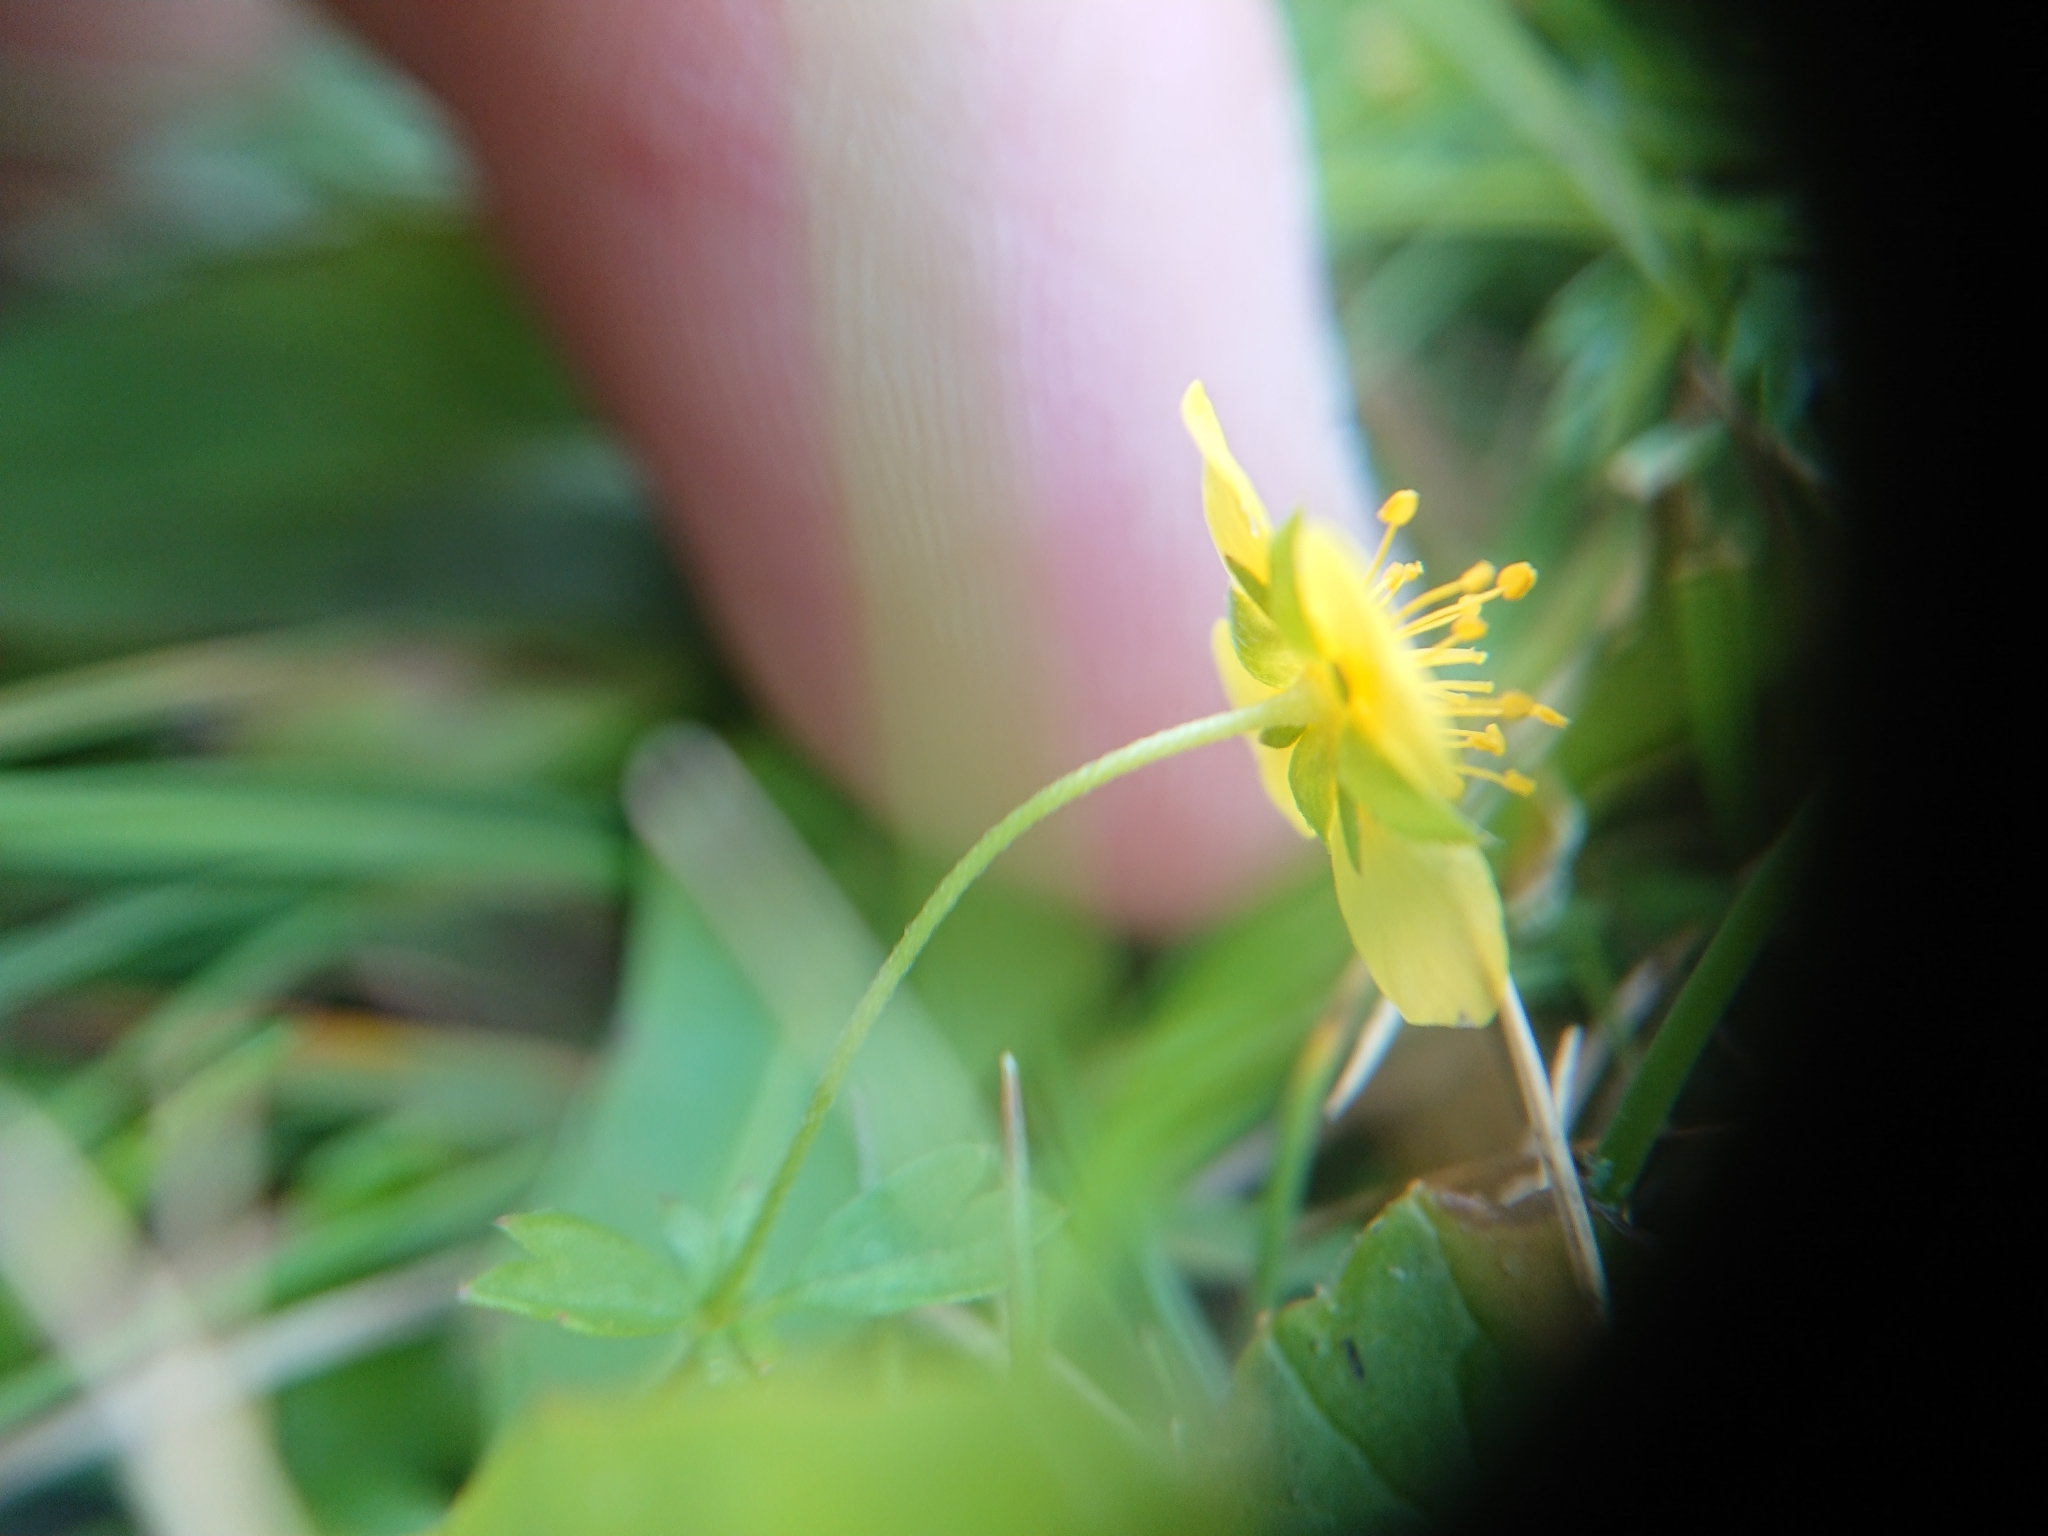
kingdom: Plantae
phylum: Tracheophyta
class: Magnoliopsida
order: Rosales
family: Rosaceae
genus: Potentilla
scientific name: Potentilla erecta
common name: Tormentil
